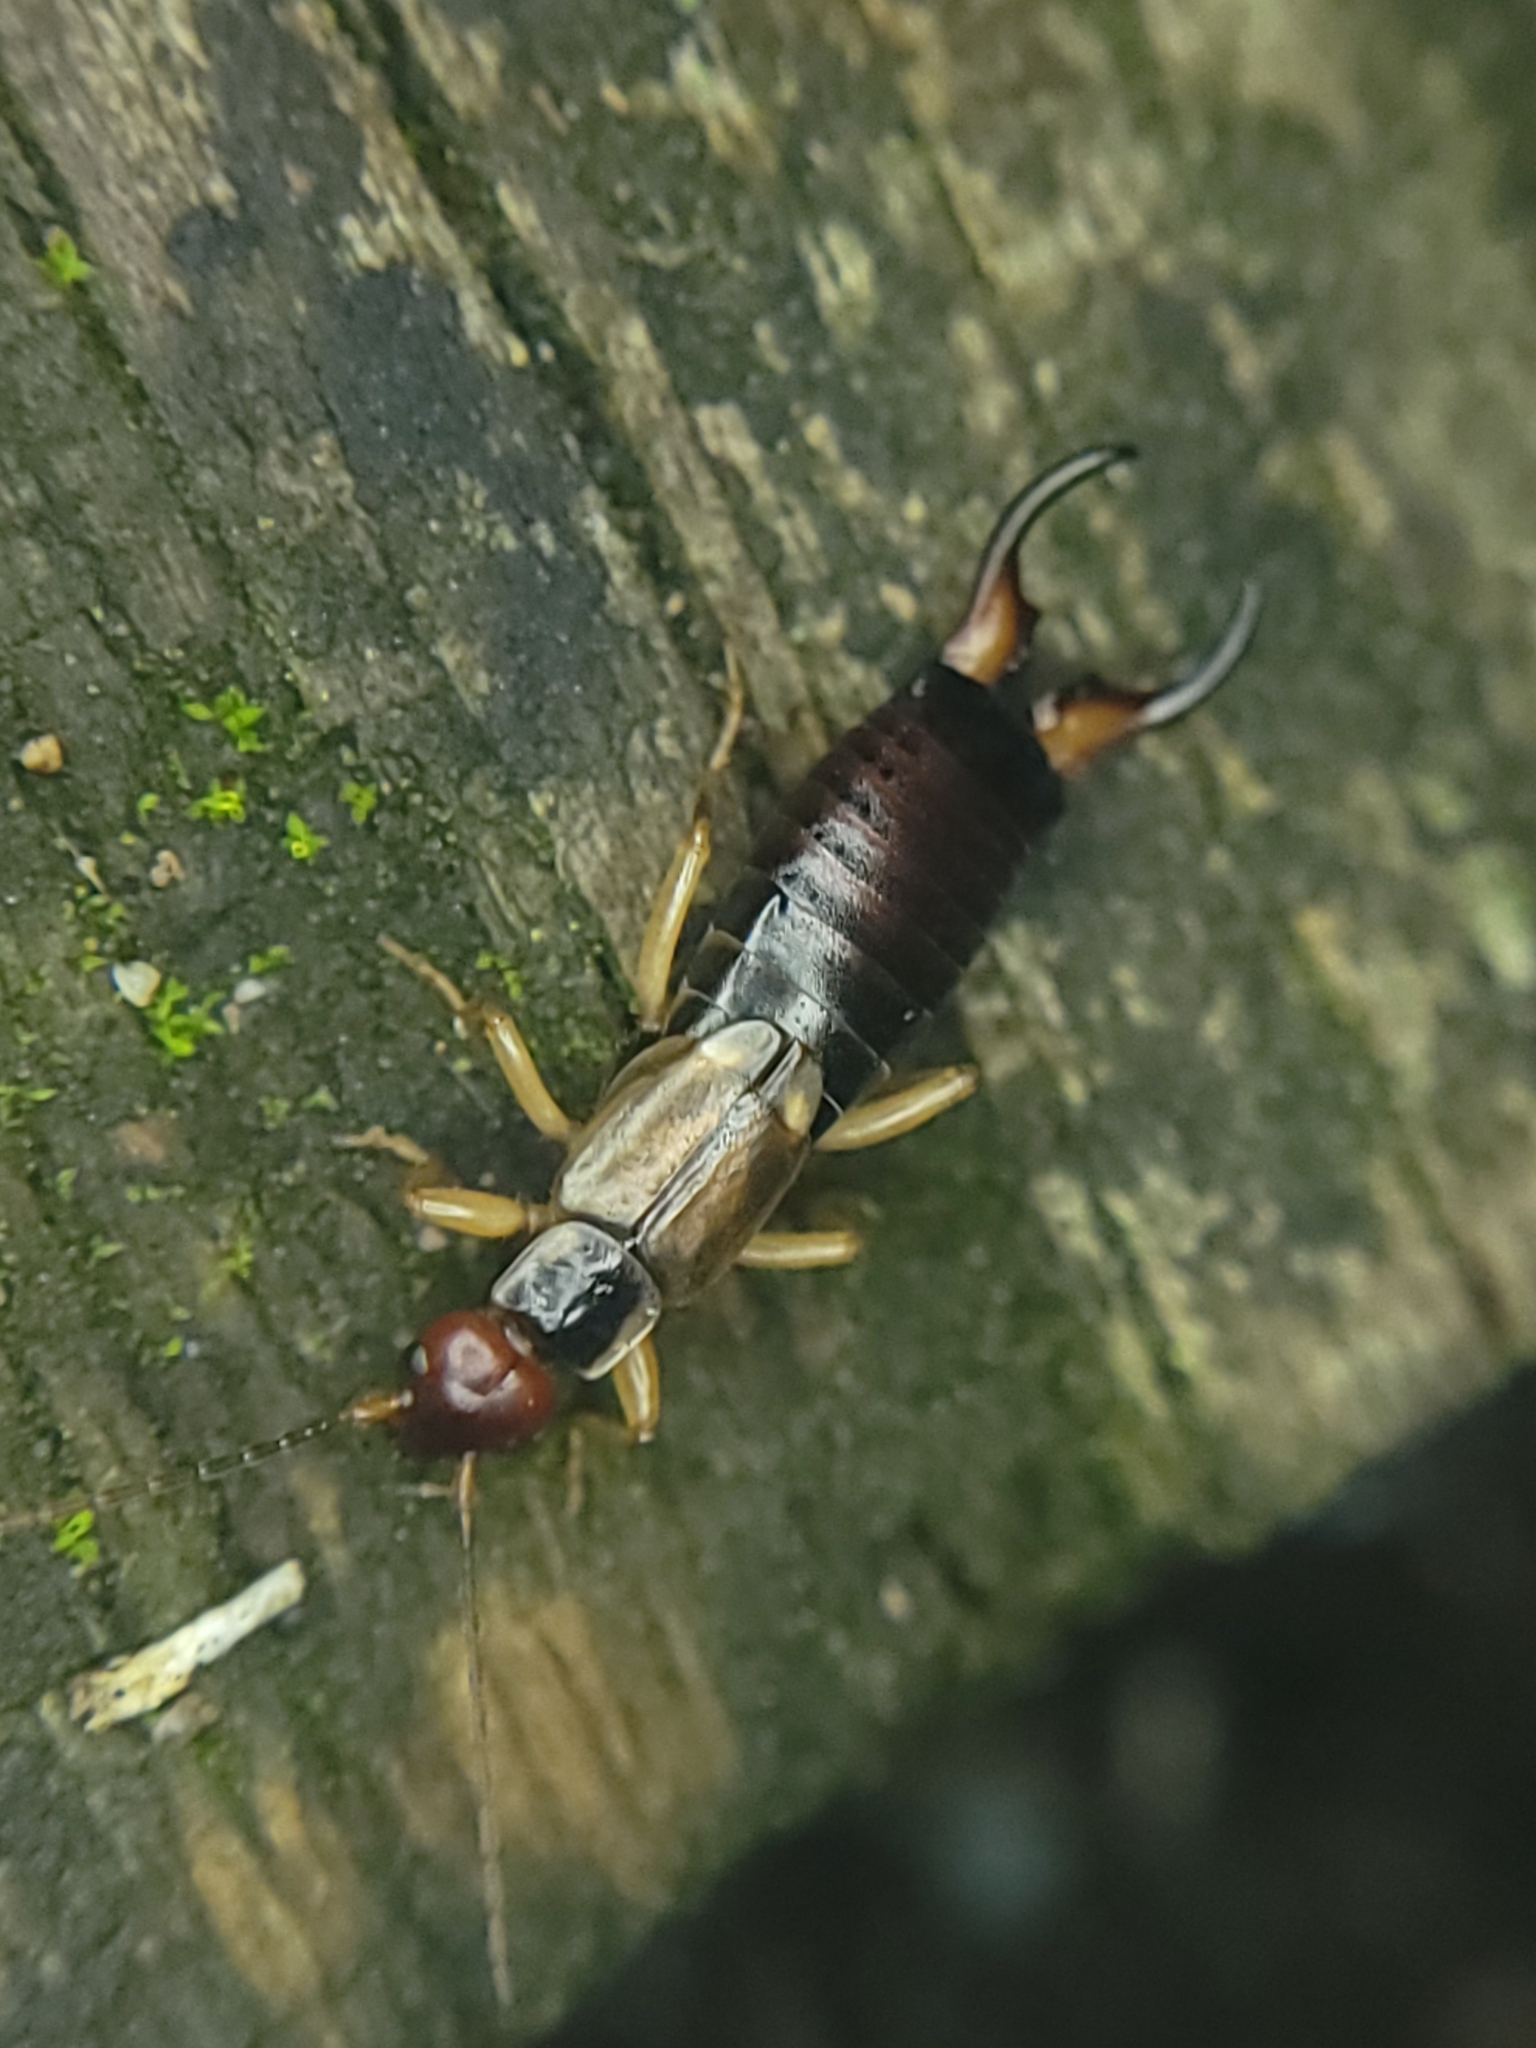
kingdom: Animalia
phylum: Arthropoda
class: Insecta
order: Dermaptera
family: Forficulidae
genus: Forficula
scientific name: Forficula dentata
